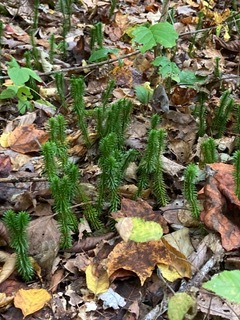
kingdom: Plantae
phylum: Tracheophyta
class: Lycopodiopsida
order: Lycopodiales
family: Lycopodiaceae
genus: Huperzia
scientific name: Huperzia lucidula
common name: Shining clubmoss
